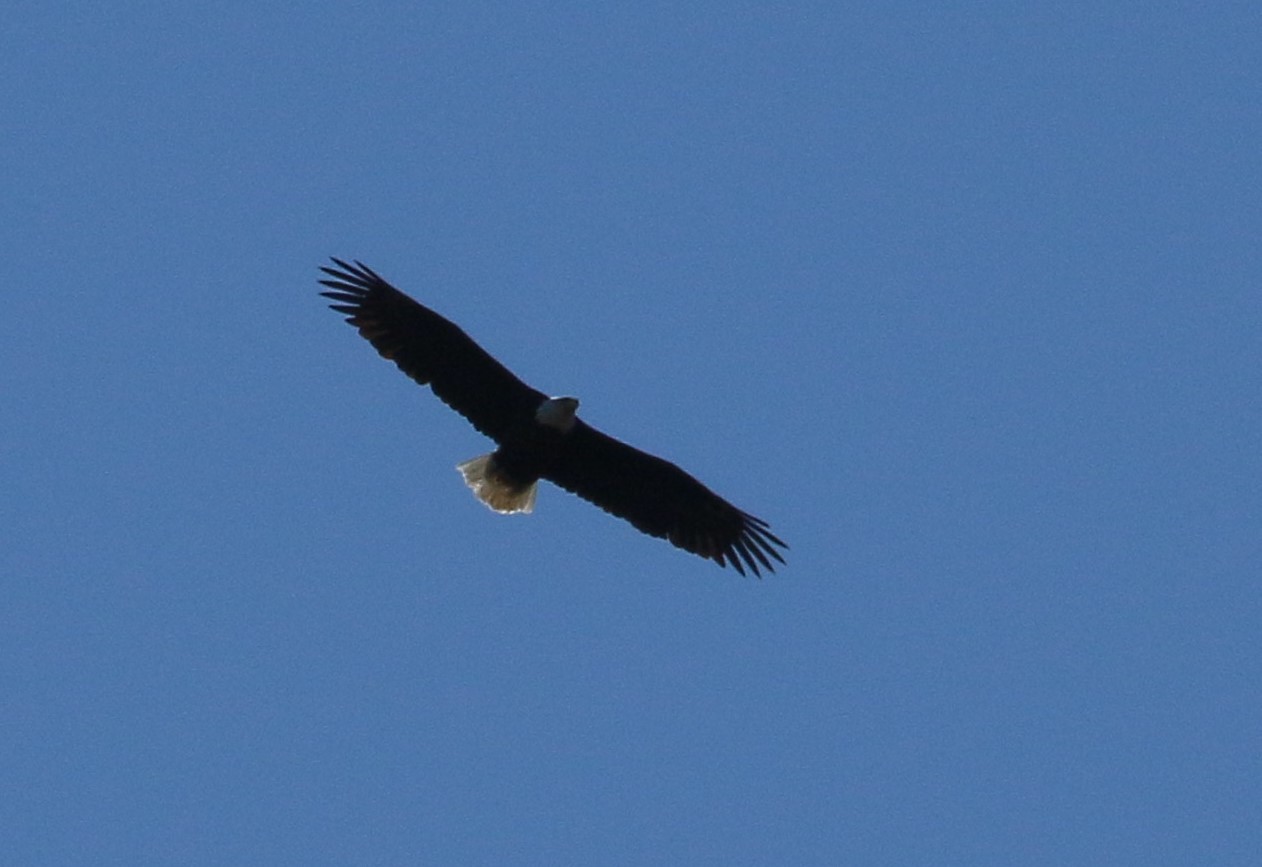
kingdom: Animalia
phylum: Chordata
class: Aves
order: Accipitriformes
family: Accipitridae
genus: Haliaeetus
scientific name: Haliaeetus leucocephalus
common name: Bald eagle
